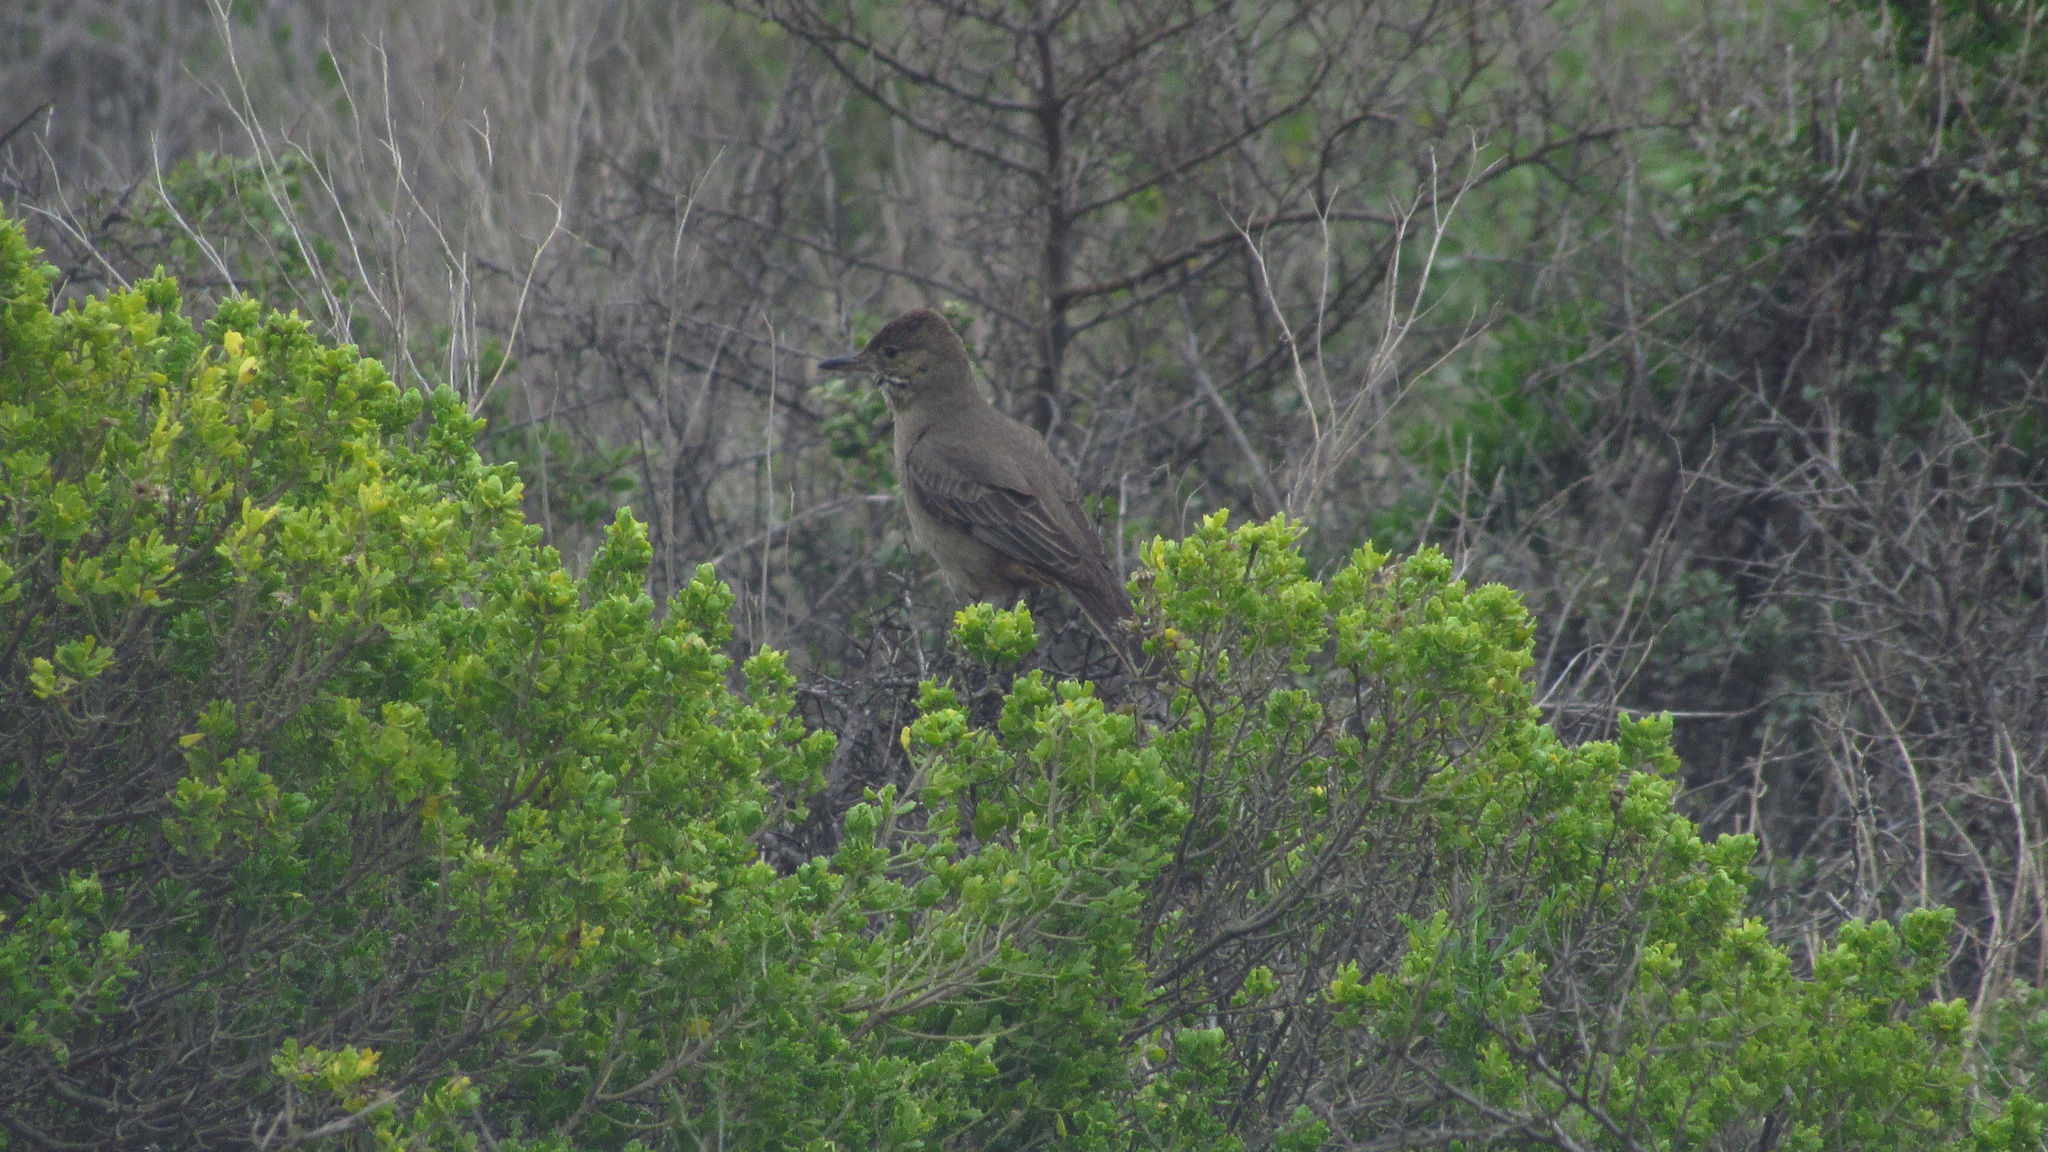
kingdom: Animalia
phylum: Chordata
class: Aves
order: Passeriformes
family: Tyrannidae
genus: Agriornis
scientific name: Agriornis lividus
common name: Great shrike-tyrant
